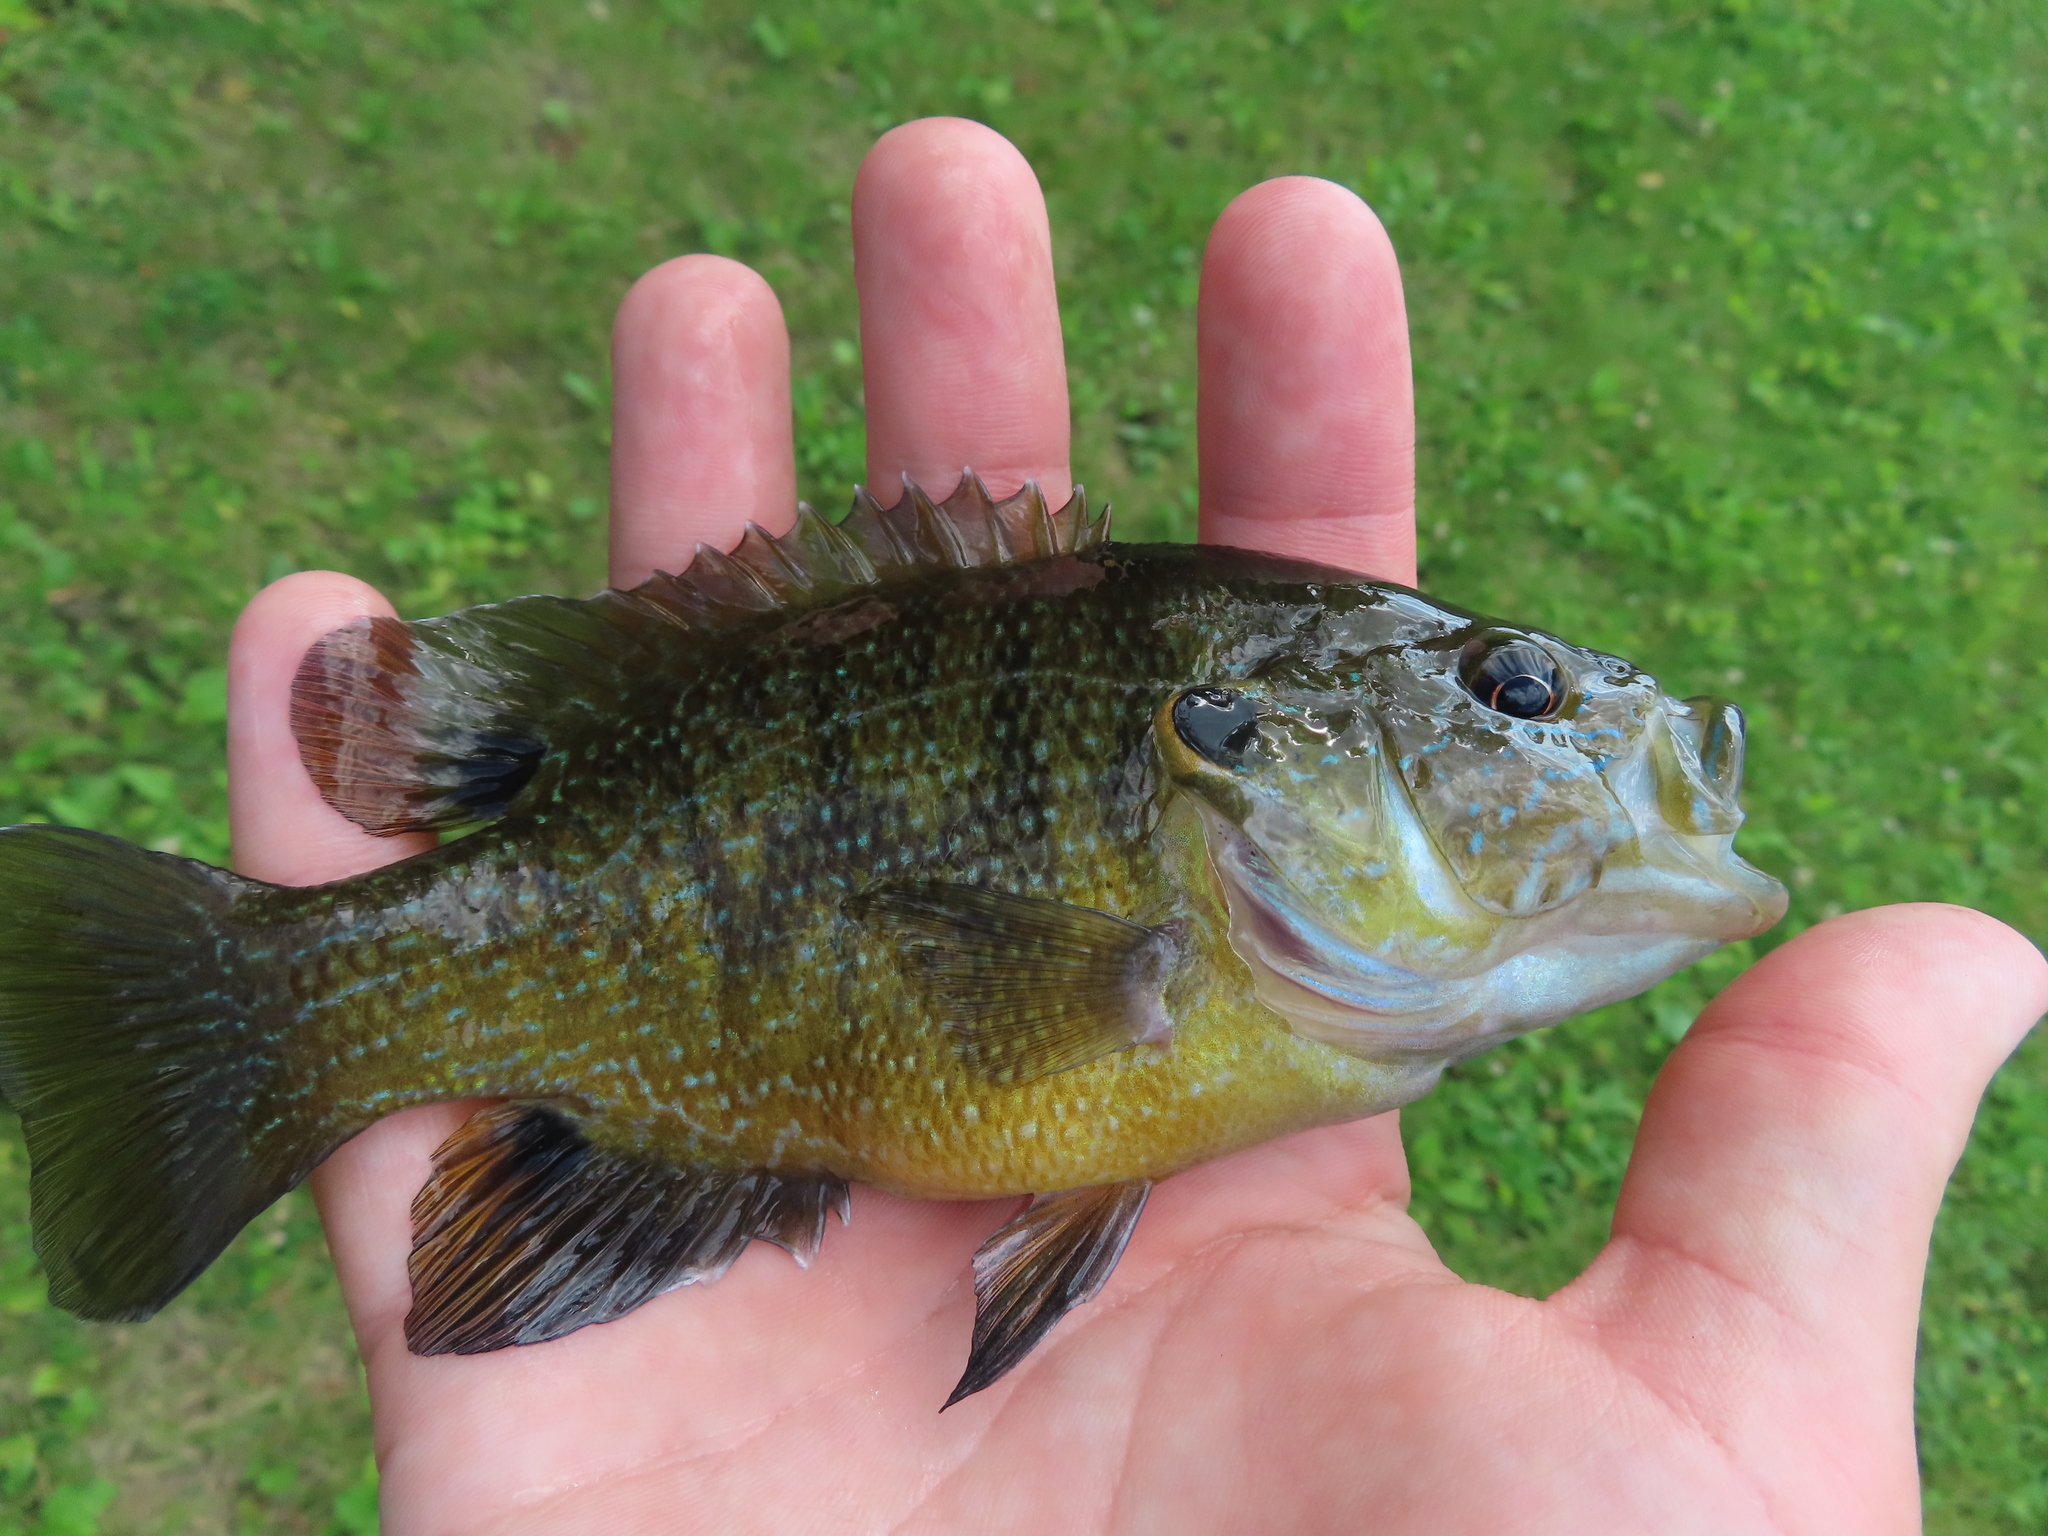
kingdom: Animalia
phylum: Chordata
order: Perciformes
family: Centrarchidae
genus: Lepomis
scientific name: Lepomis cyanellus
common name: Green sunfish
